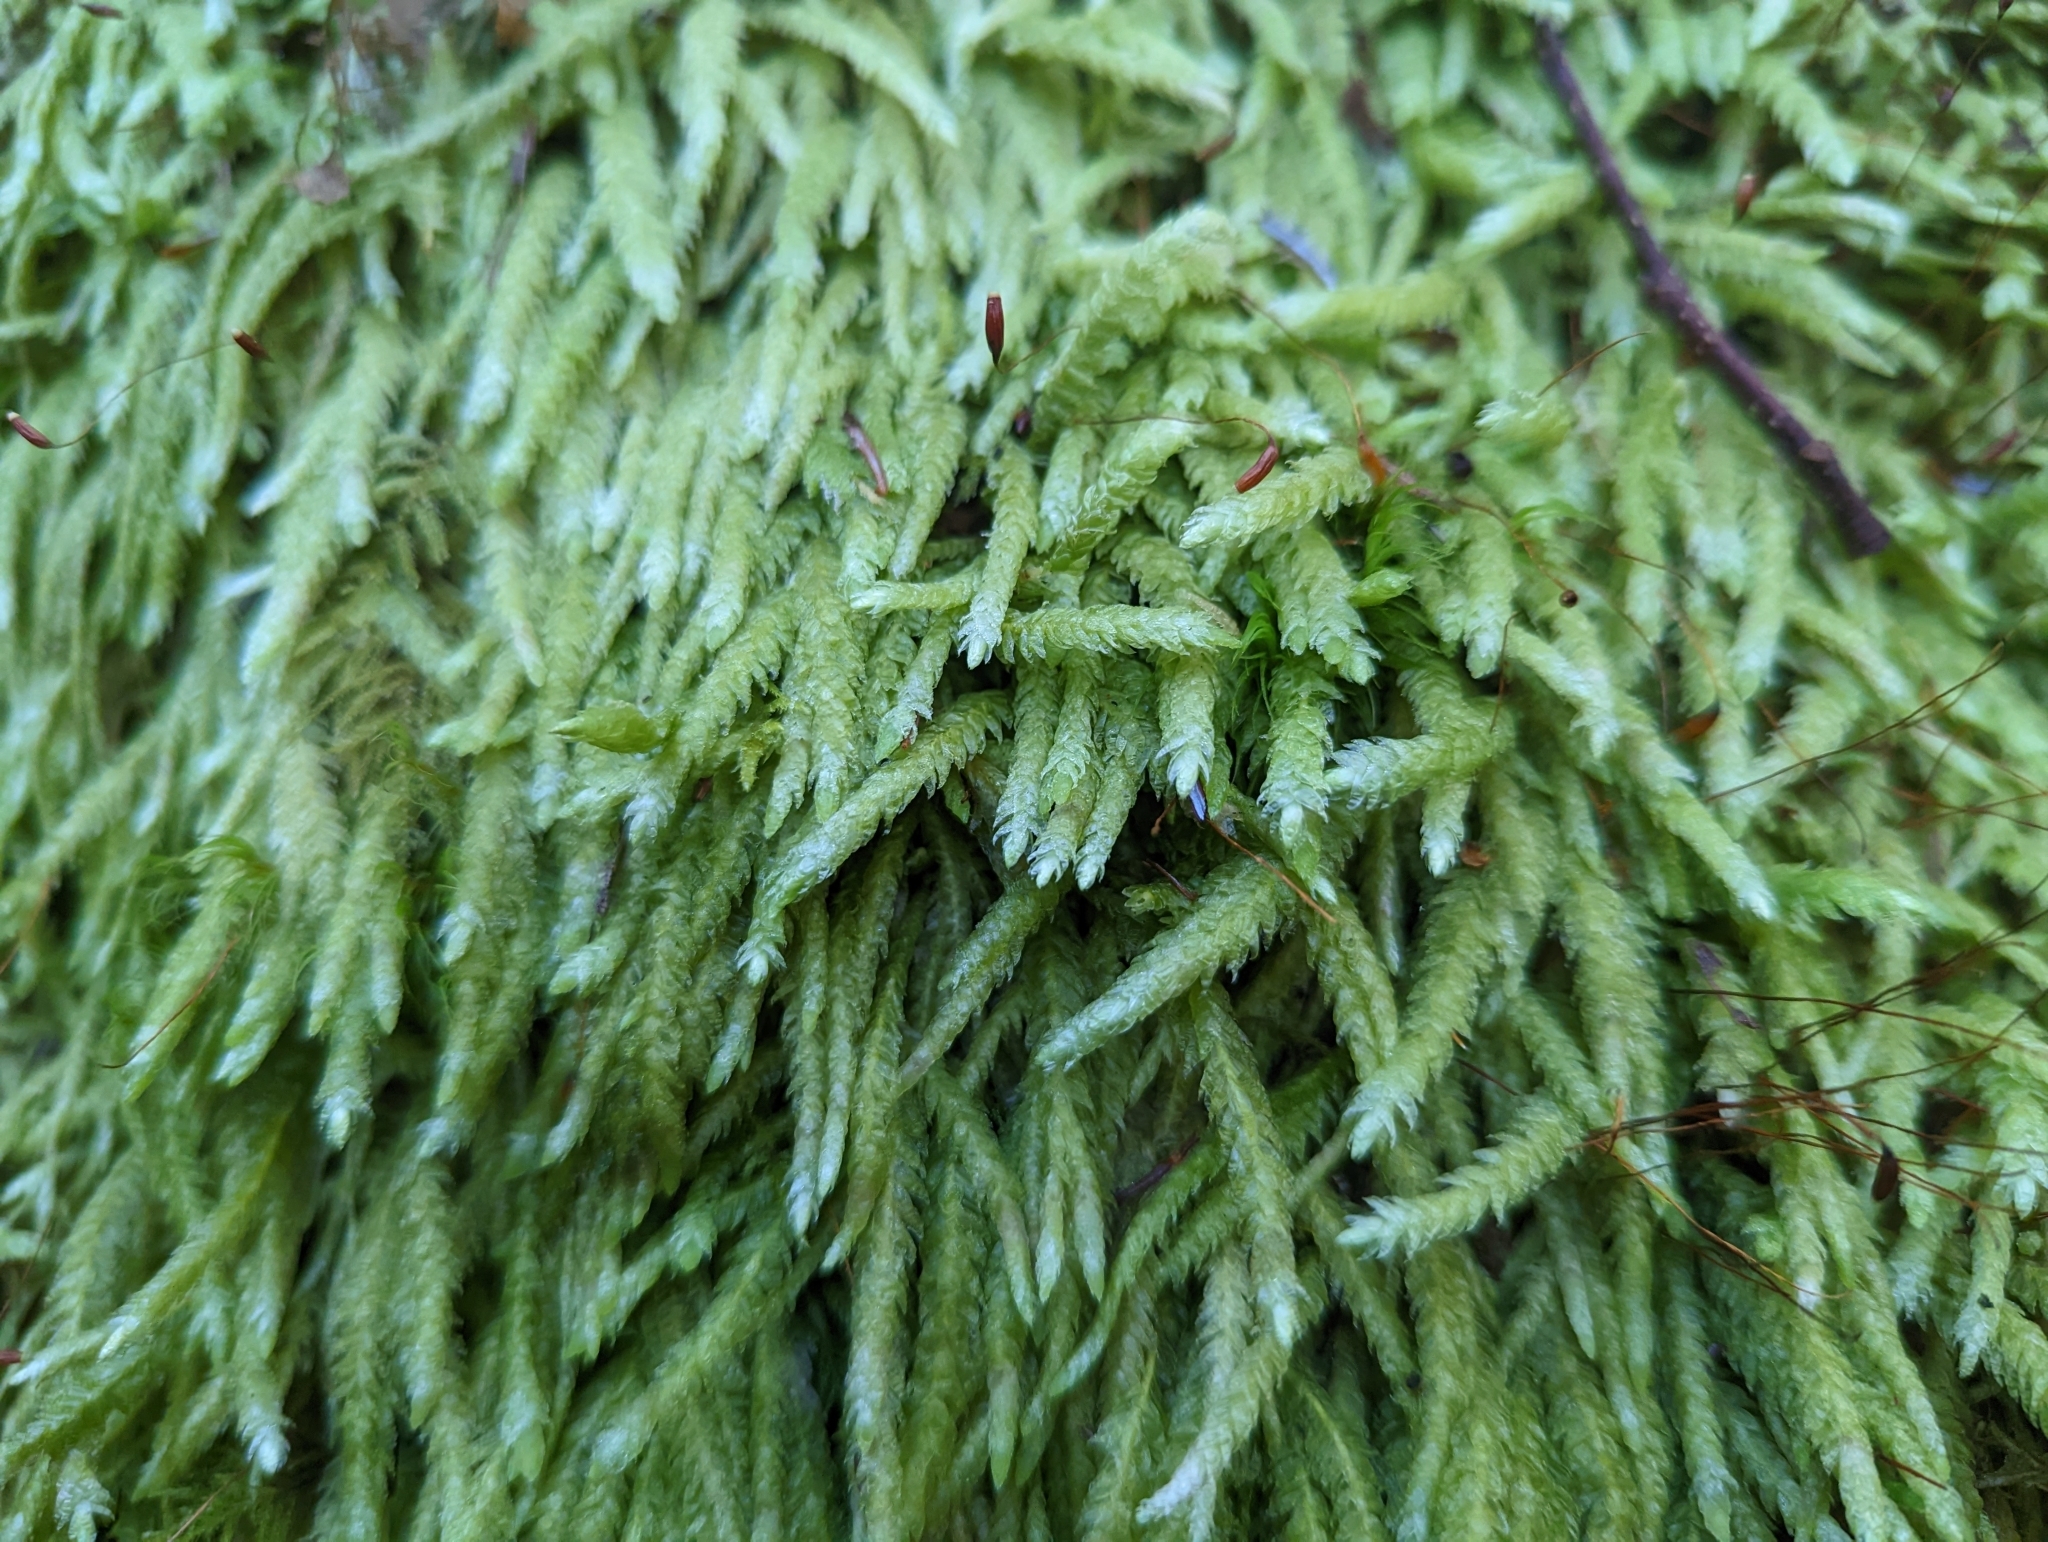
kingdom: Plantae
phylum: Bryophyta
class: Bryopsida
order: Hypnales
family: Plagiotheciaceae
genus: Plagiothecium
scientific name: Plagiothecium undulatum
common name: Waved silk-moss
